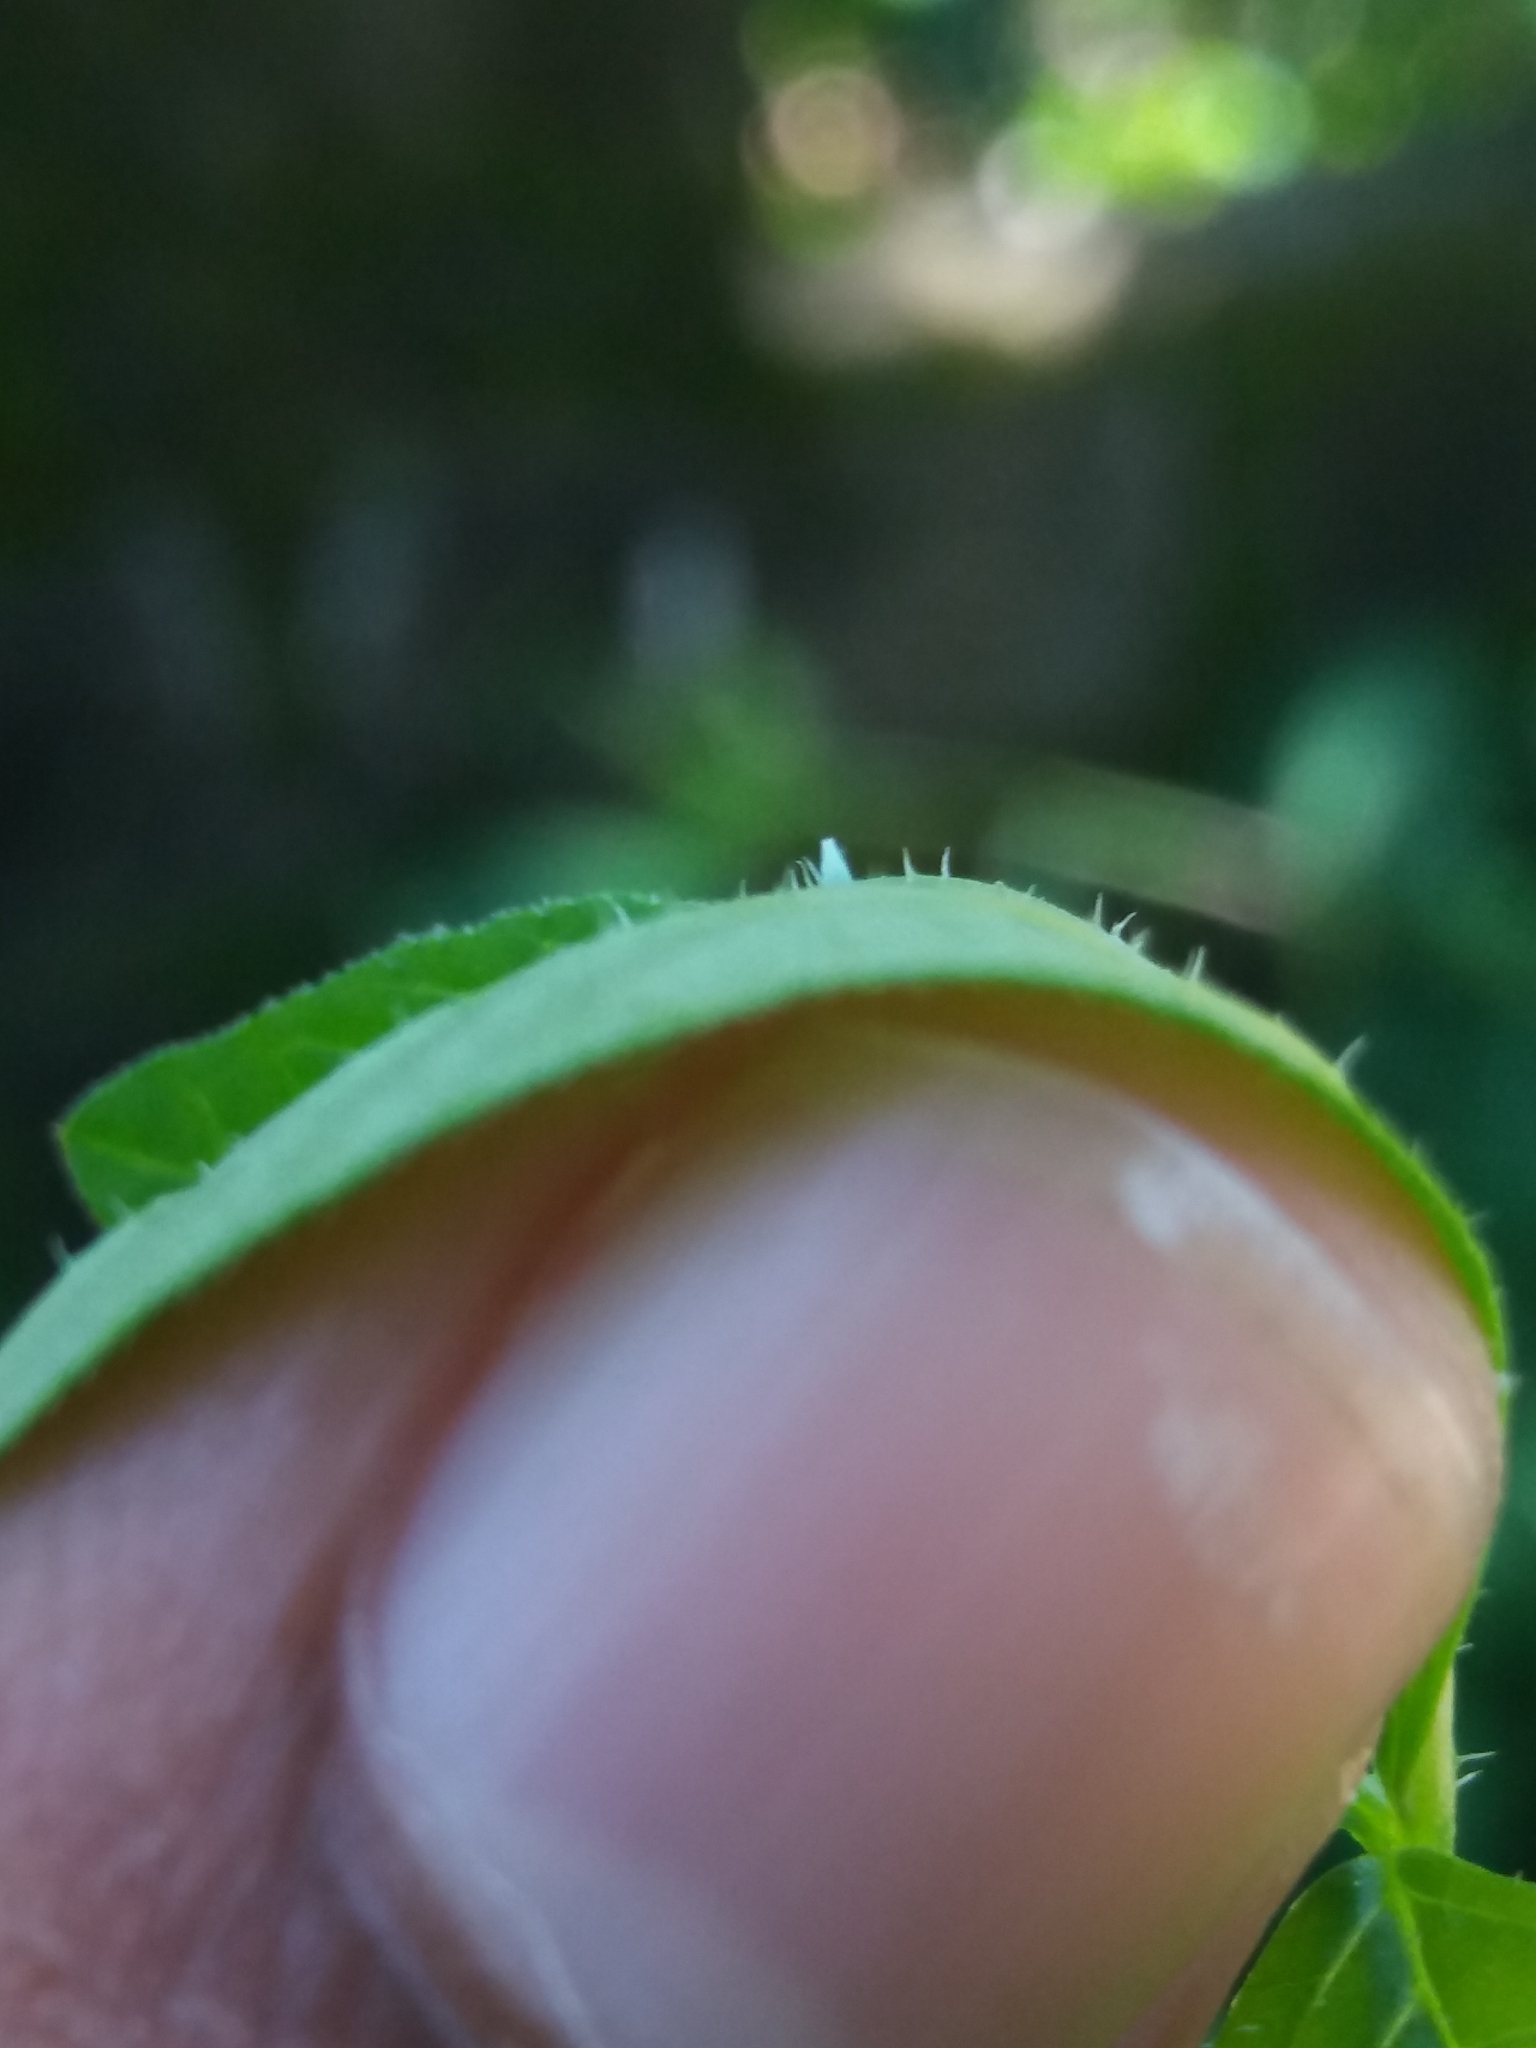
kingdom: Animalia
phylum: Arthropoda
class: Insecta
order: Lepidoptera
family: Pieridae
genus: Leptosia
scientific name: Leptosia nina
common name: Psyche
